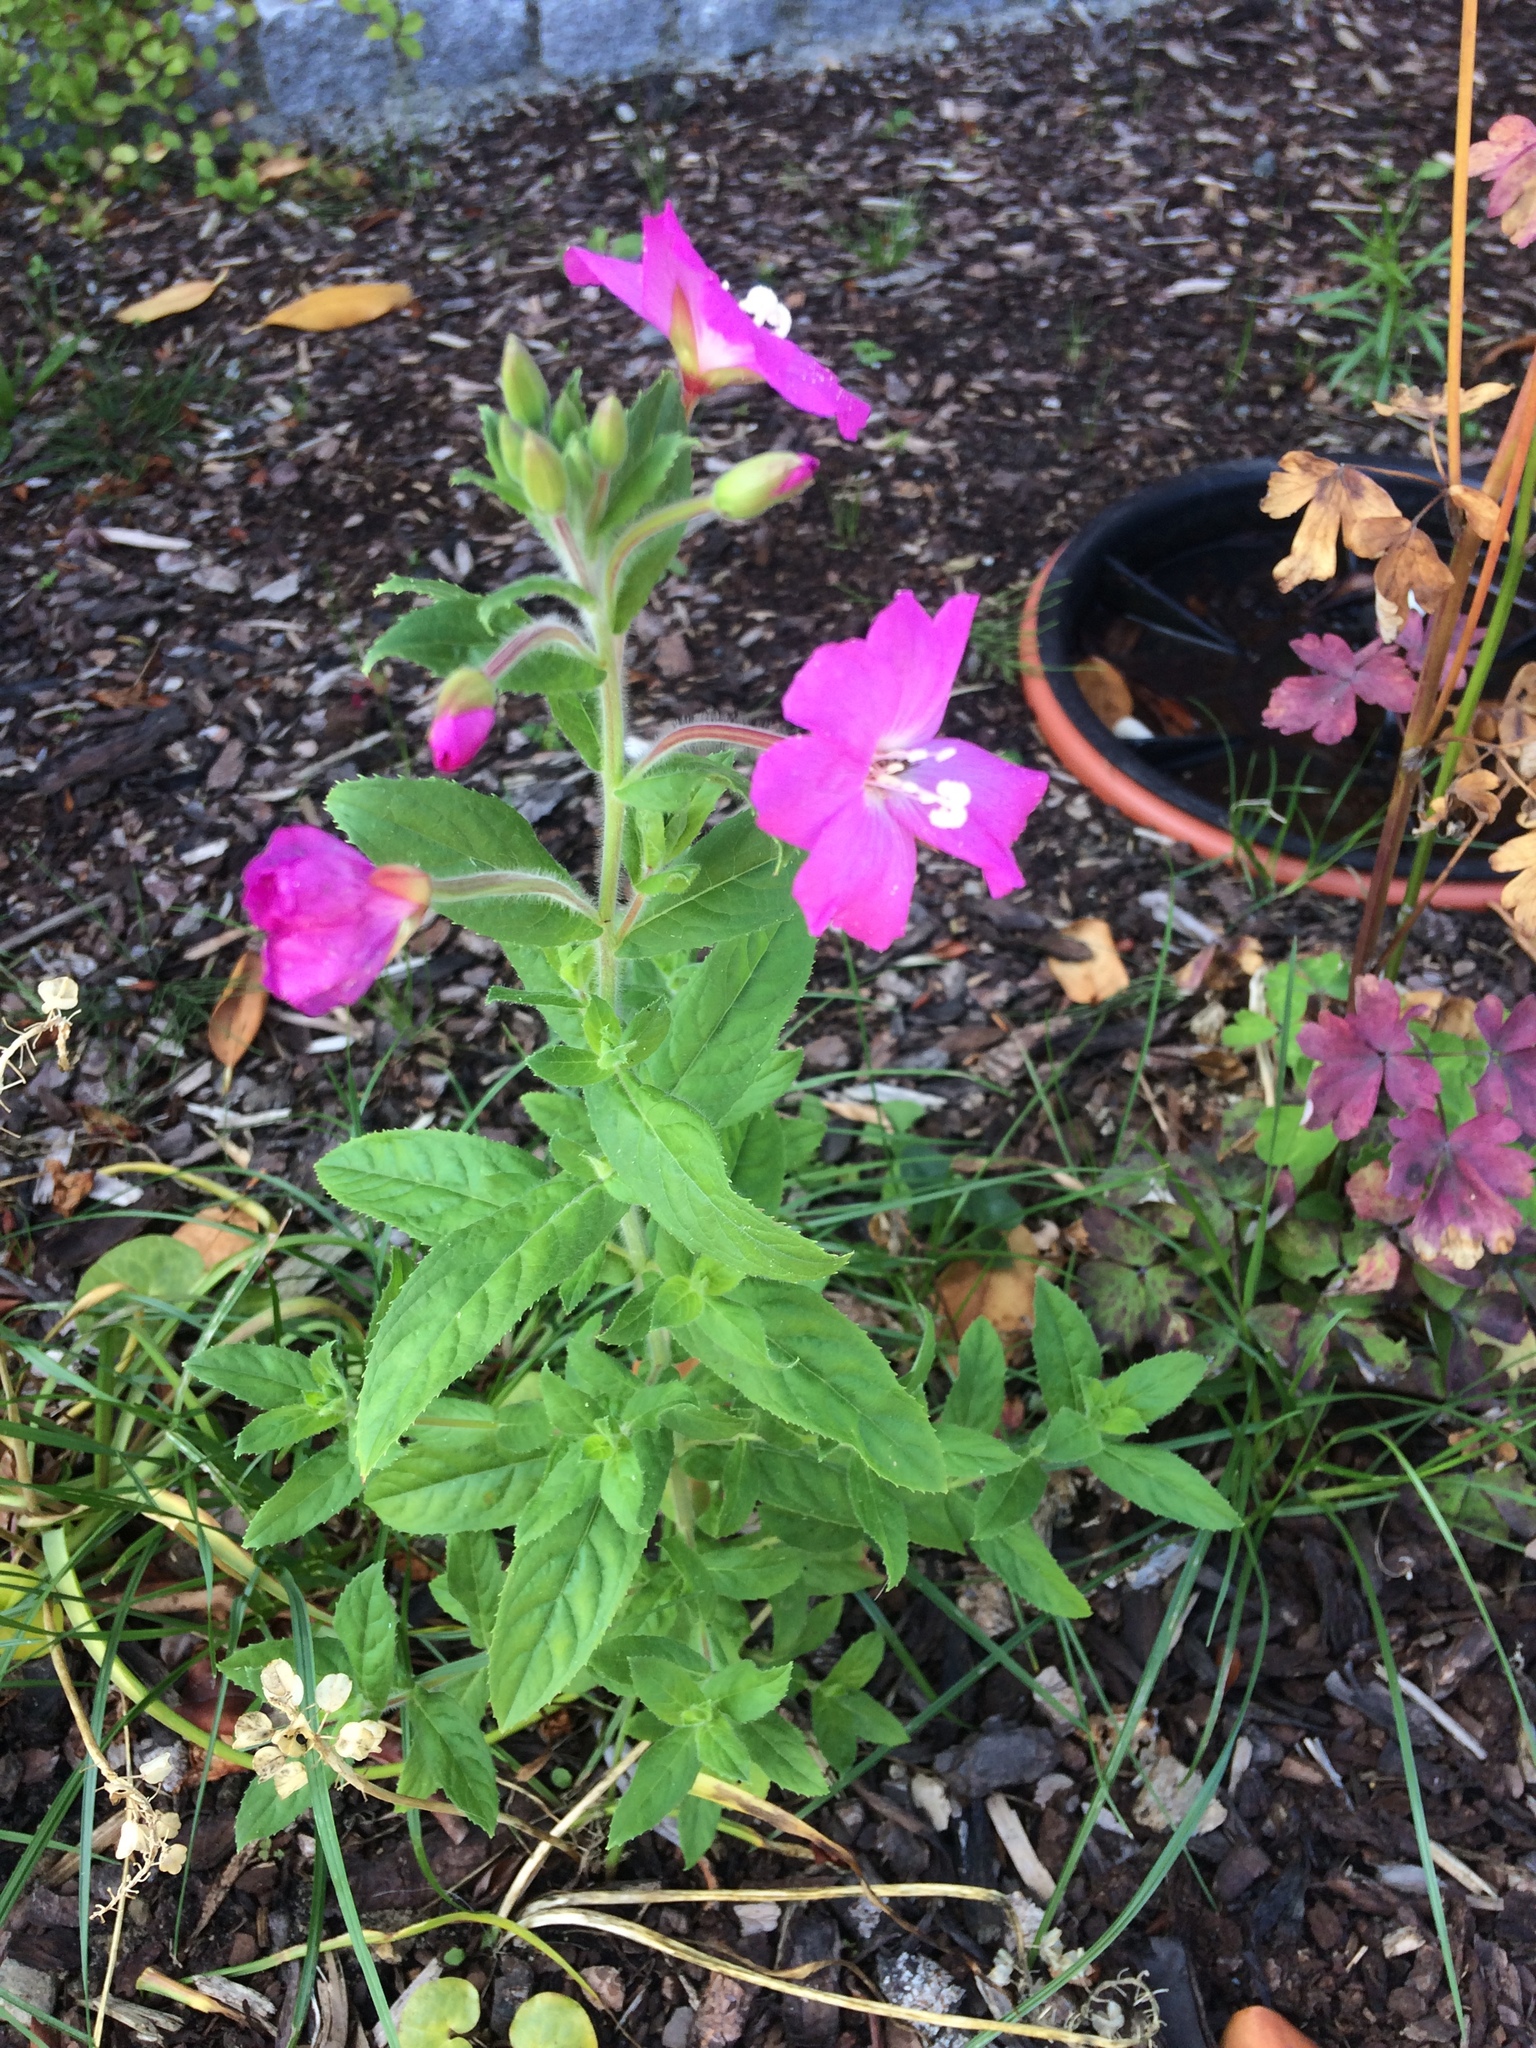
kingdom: Plantae
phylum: Tracheophyta
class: Magnoliopsida
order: Myrtales
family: Onagraceae
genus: Epilobium
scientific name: Epilobium hirsutum
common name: Great willowherb
